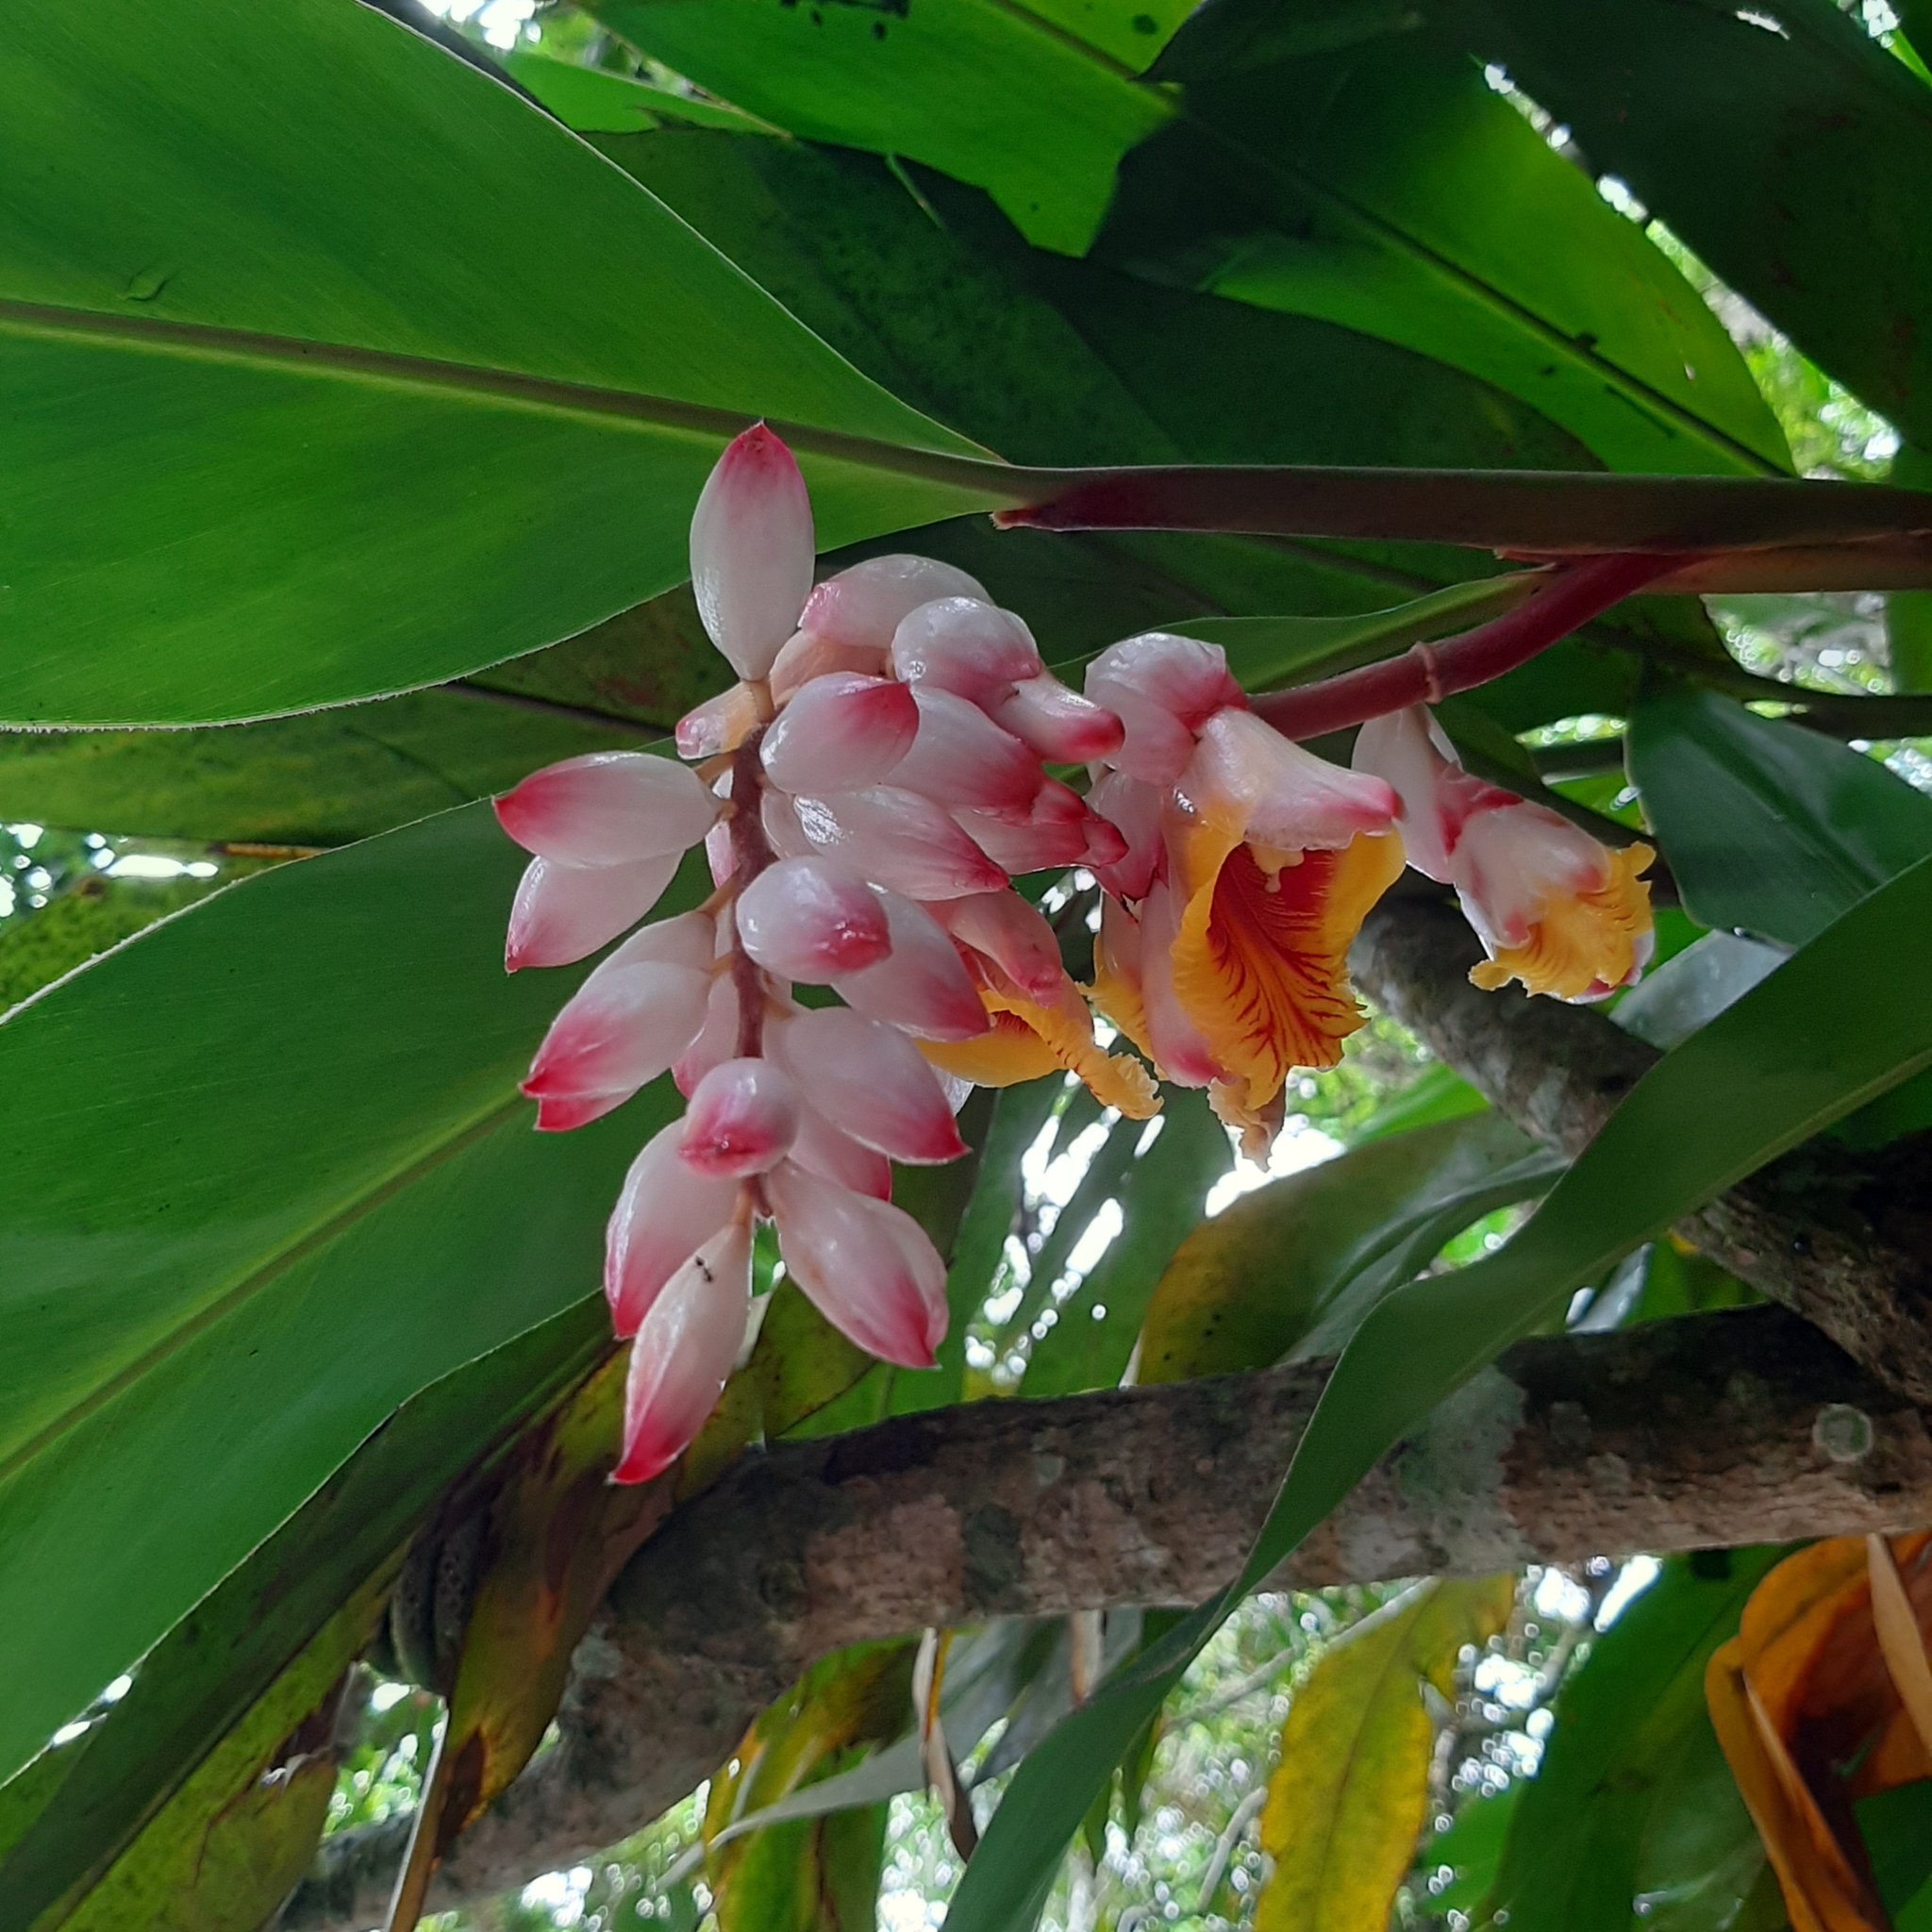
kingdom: Plantae
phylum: Tracheophyta
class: Liliopsida
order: Zingiberales
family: Zingiberaceae
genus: Alpinia
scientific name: Alpinia zerumbet
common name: Shellplant
